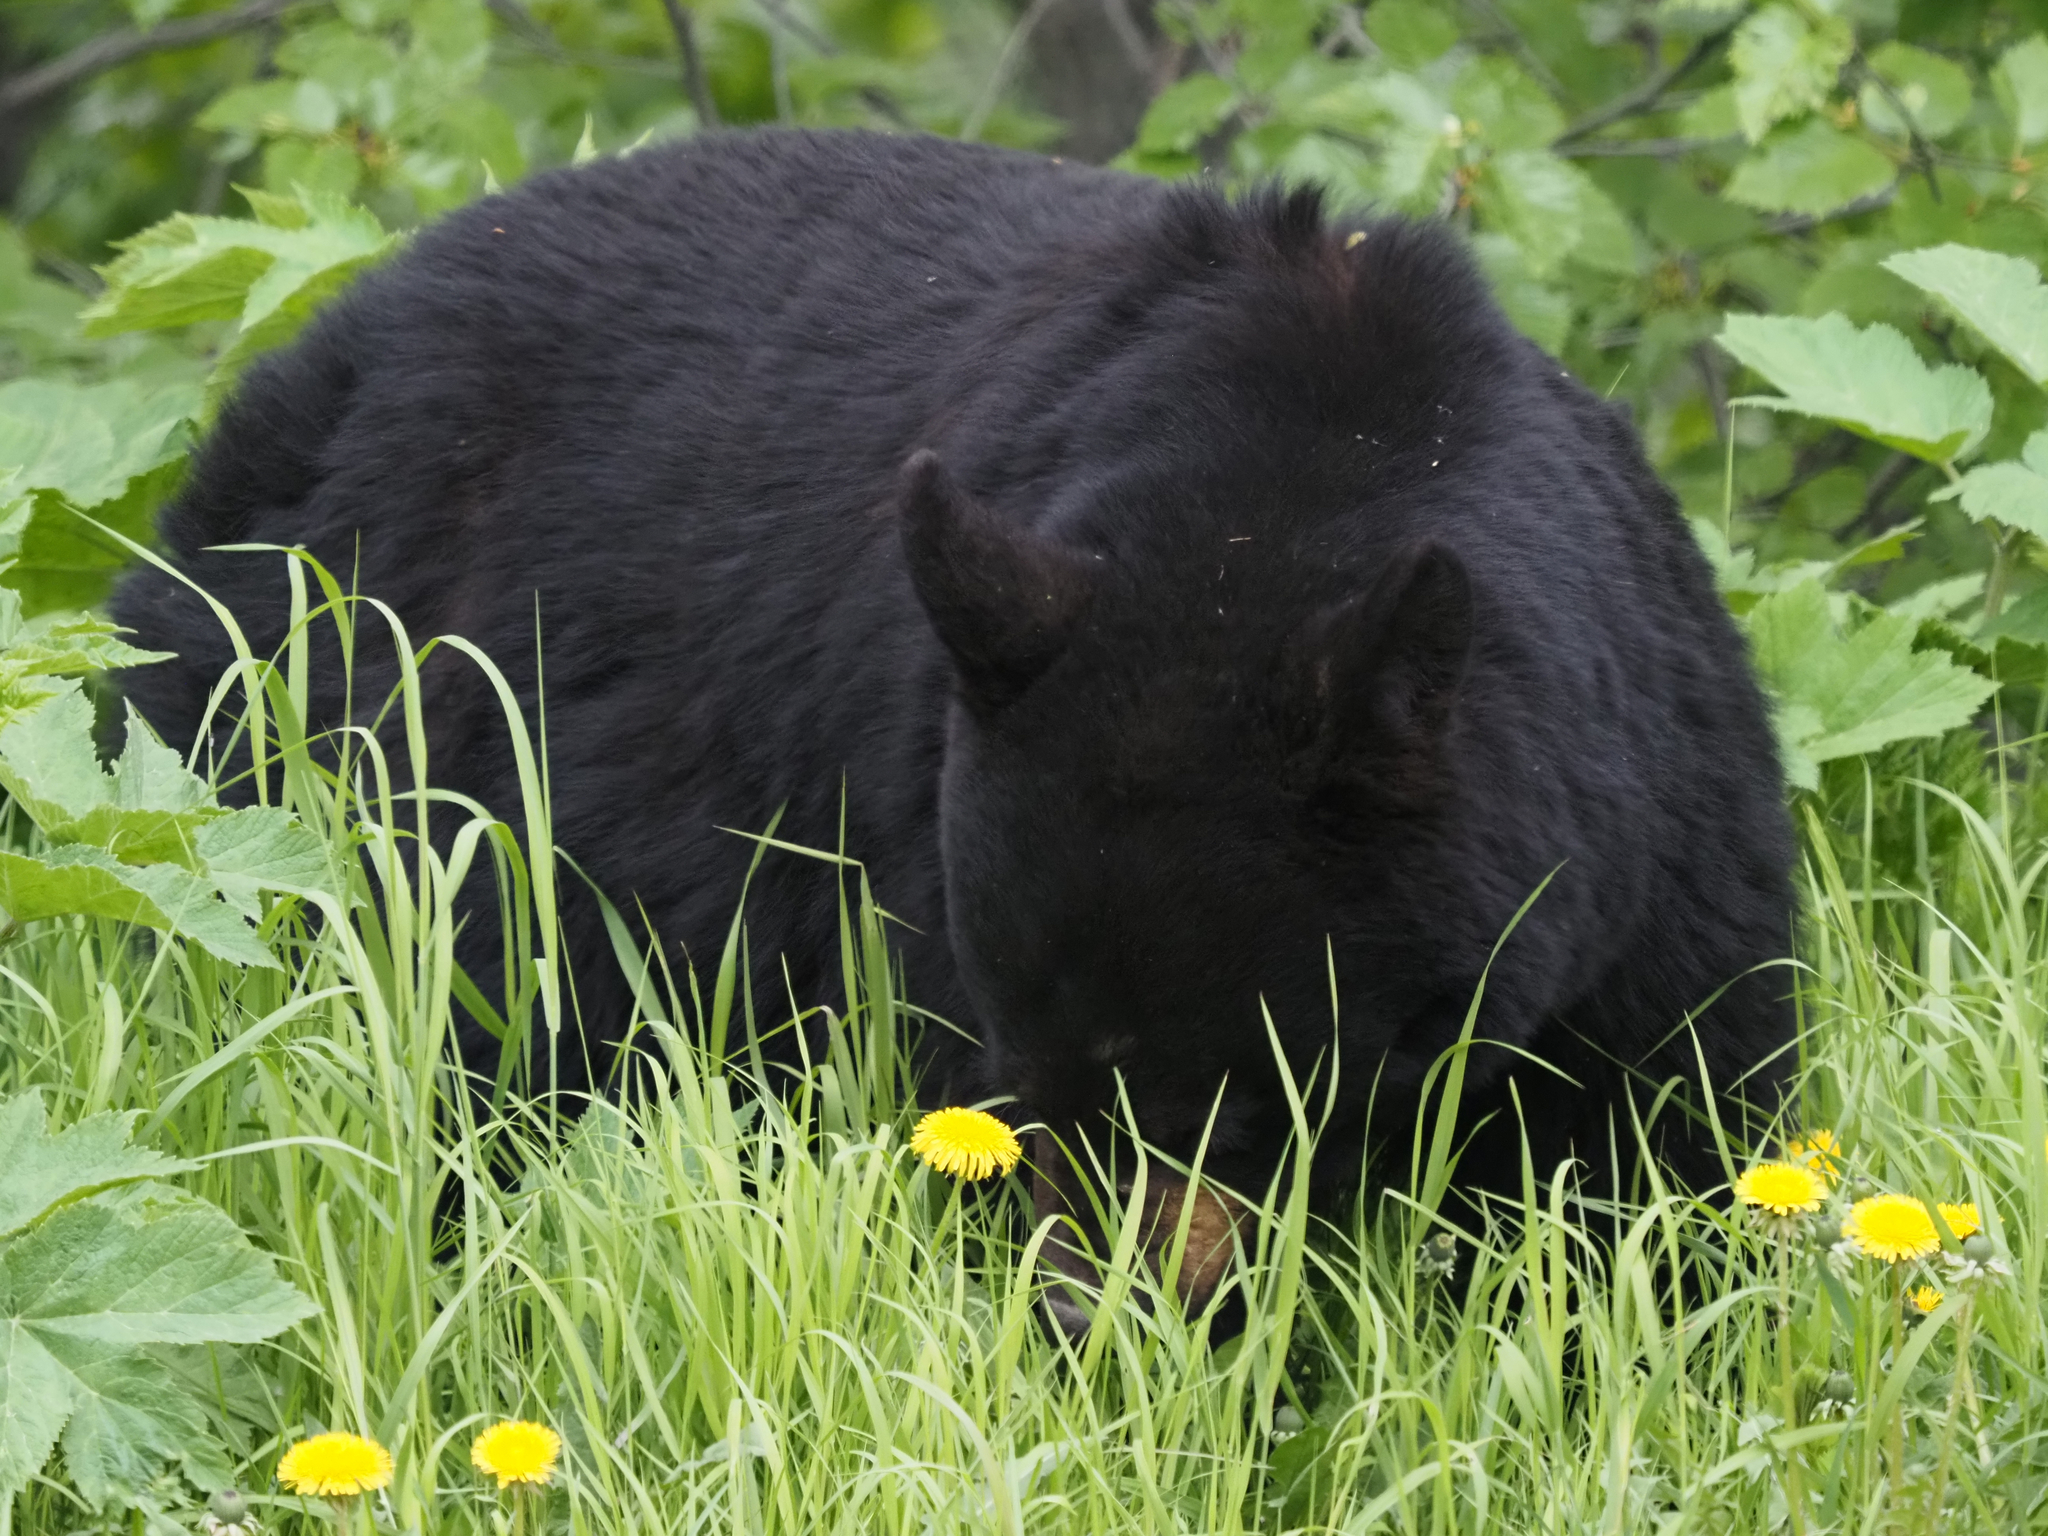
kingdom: Animalia
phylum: Chordata
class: Mammalia
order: Carnivora
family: Ursidae
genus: Ursus
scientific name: Ursus americanus
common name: American black bear
